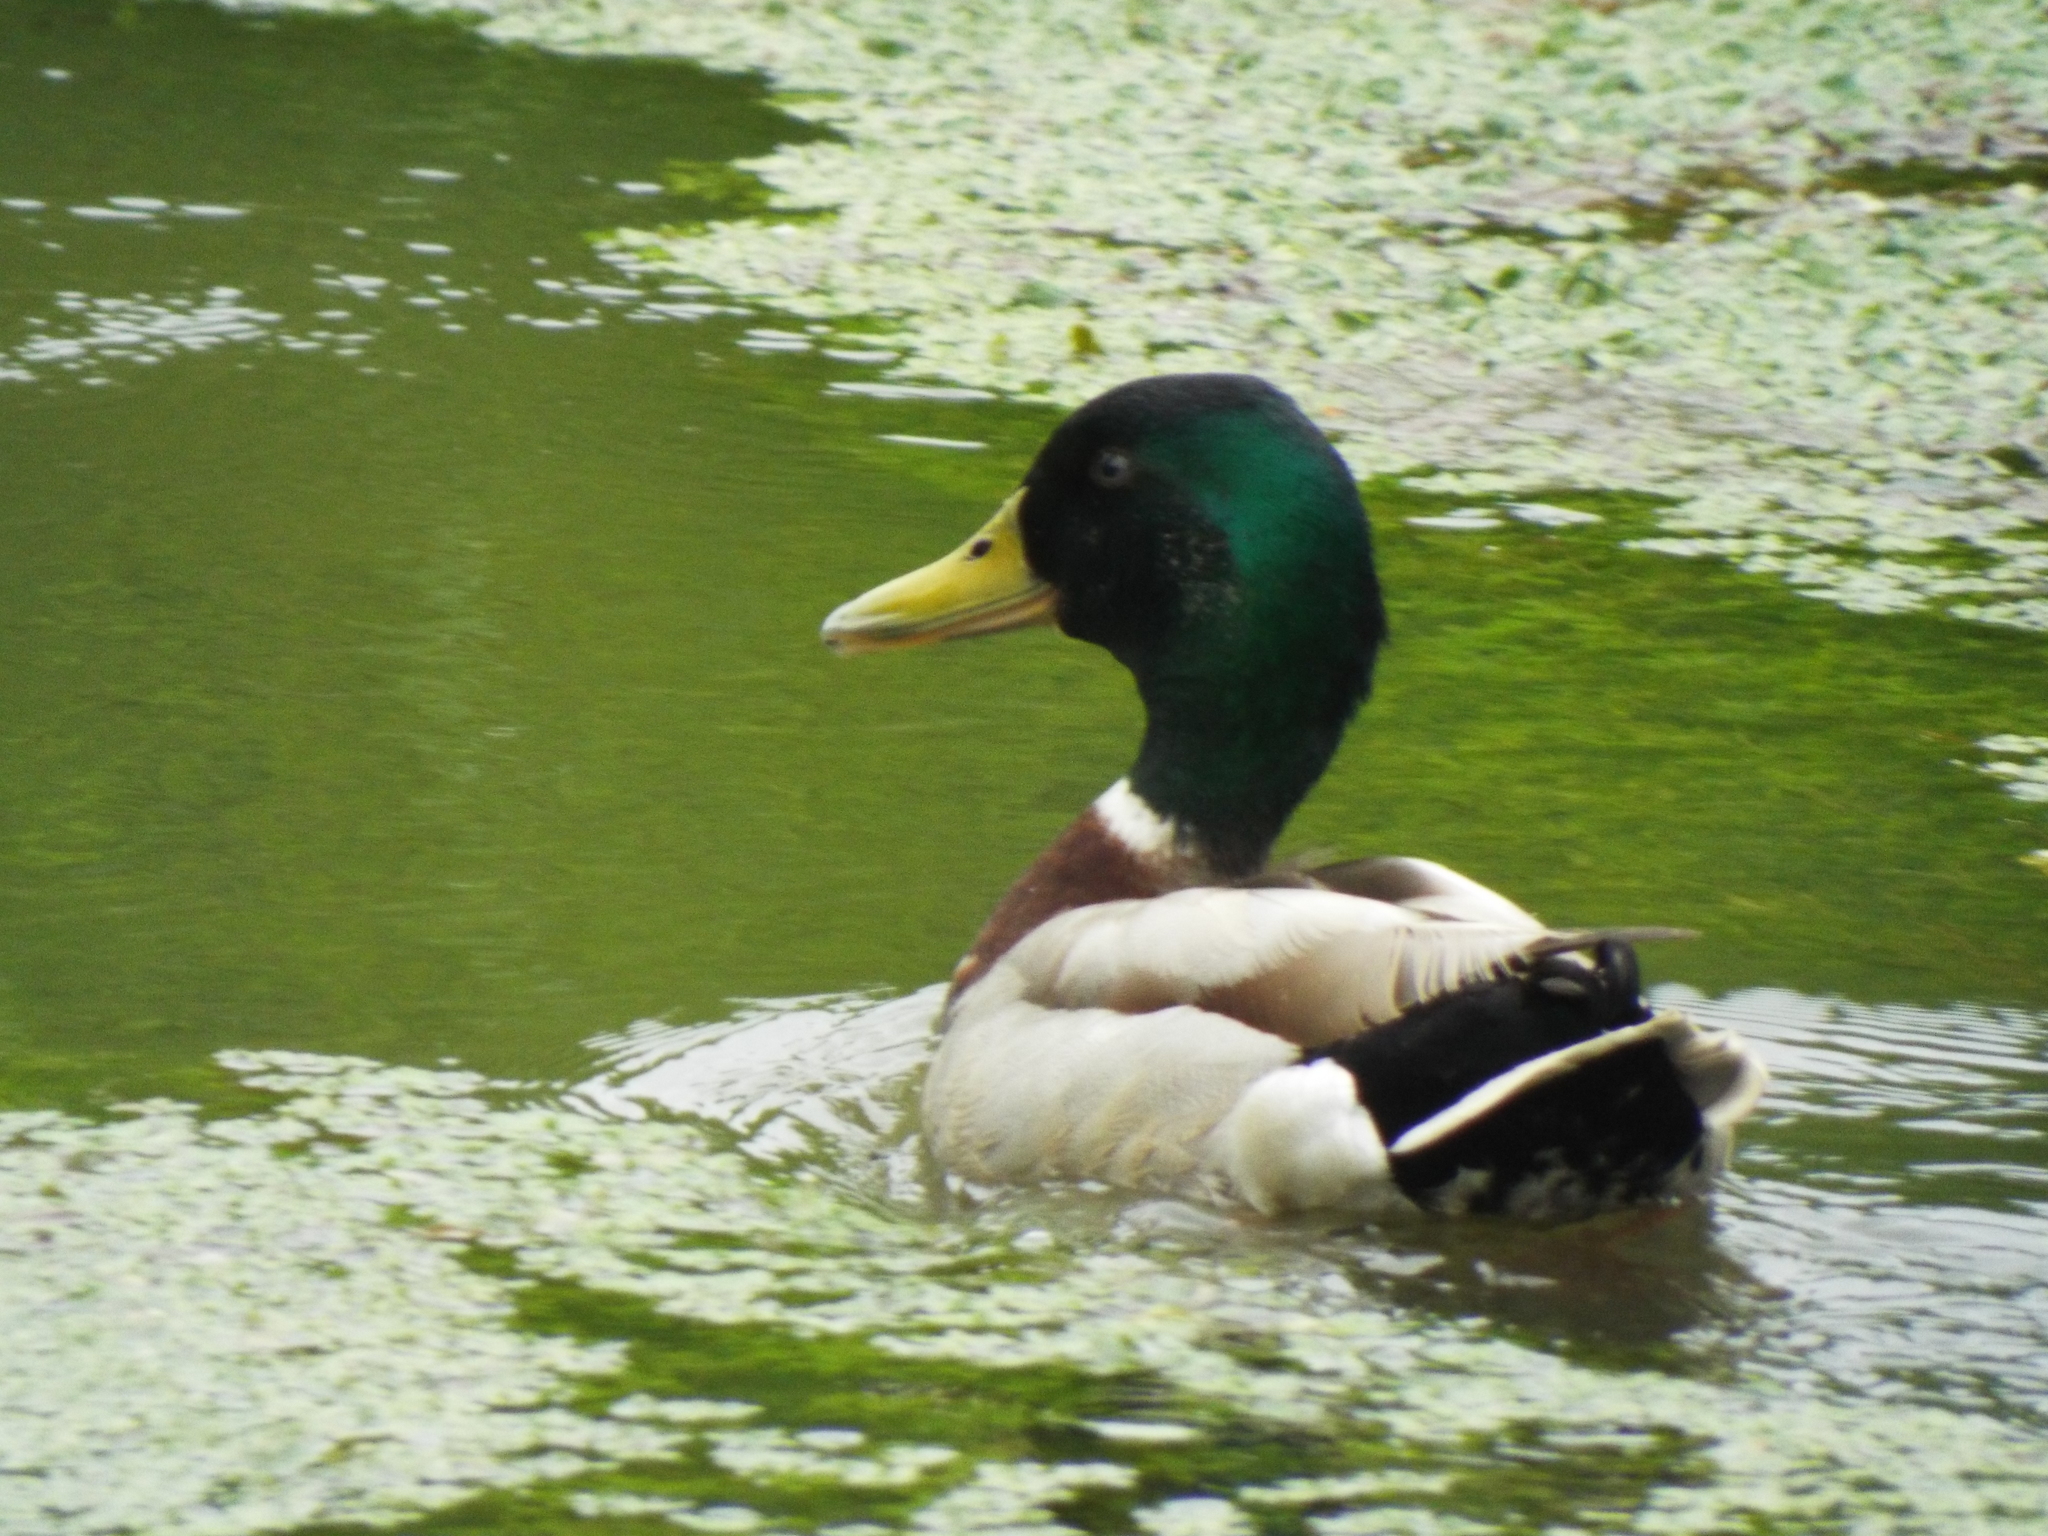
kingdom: Animalia
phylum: Chordata
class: Aves
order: Anseriformes
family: Anatidae
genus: Anas
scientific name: Anas platyrhynchos
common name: Mallard
